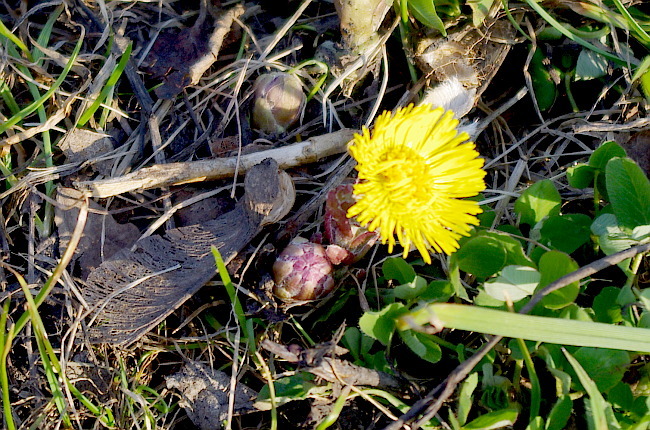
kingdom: Plantae
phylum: Tracheophyta
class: Magnoliopsida
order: Asterales
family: Asteraceae
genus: Tussilago
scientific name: Tussilago farfara
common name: Coltsfoot
